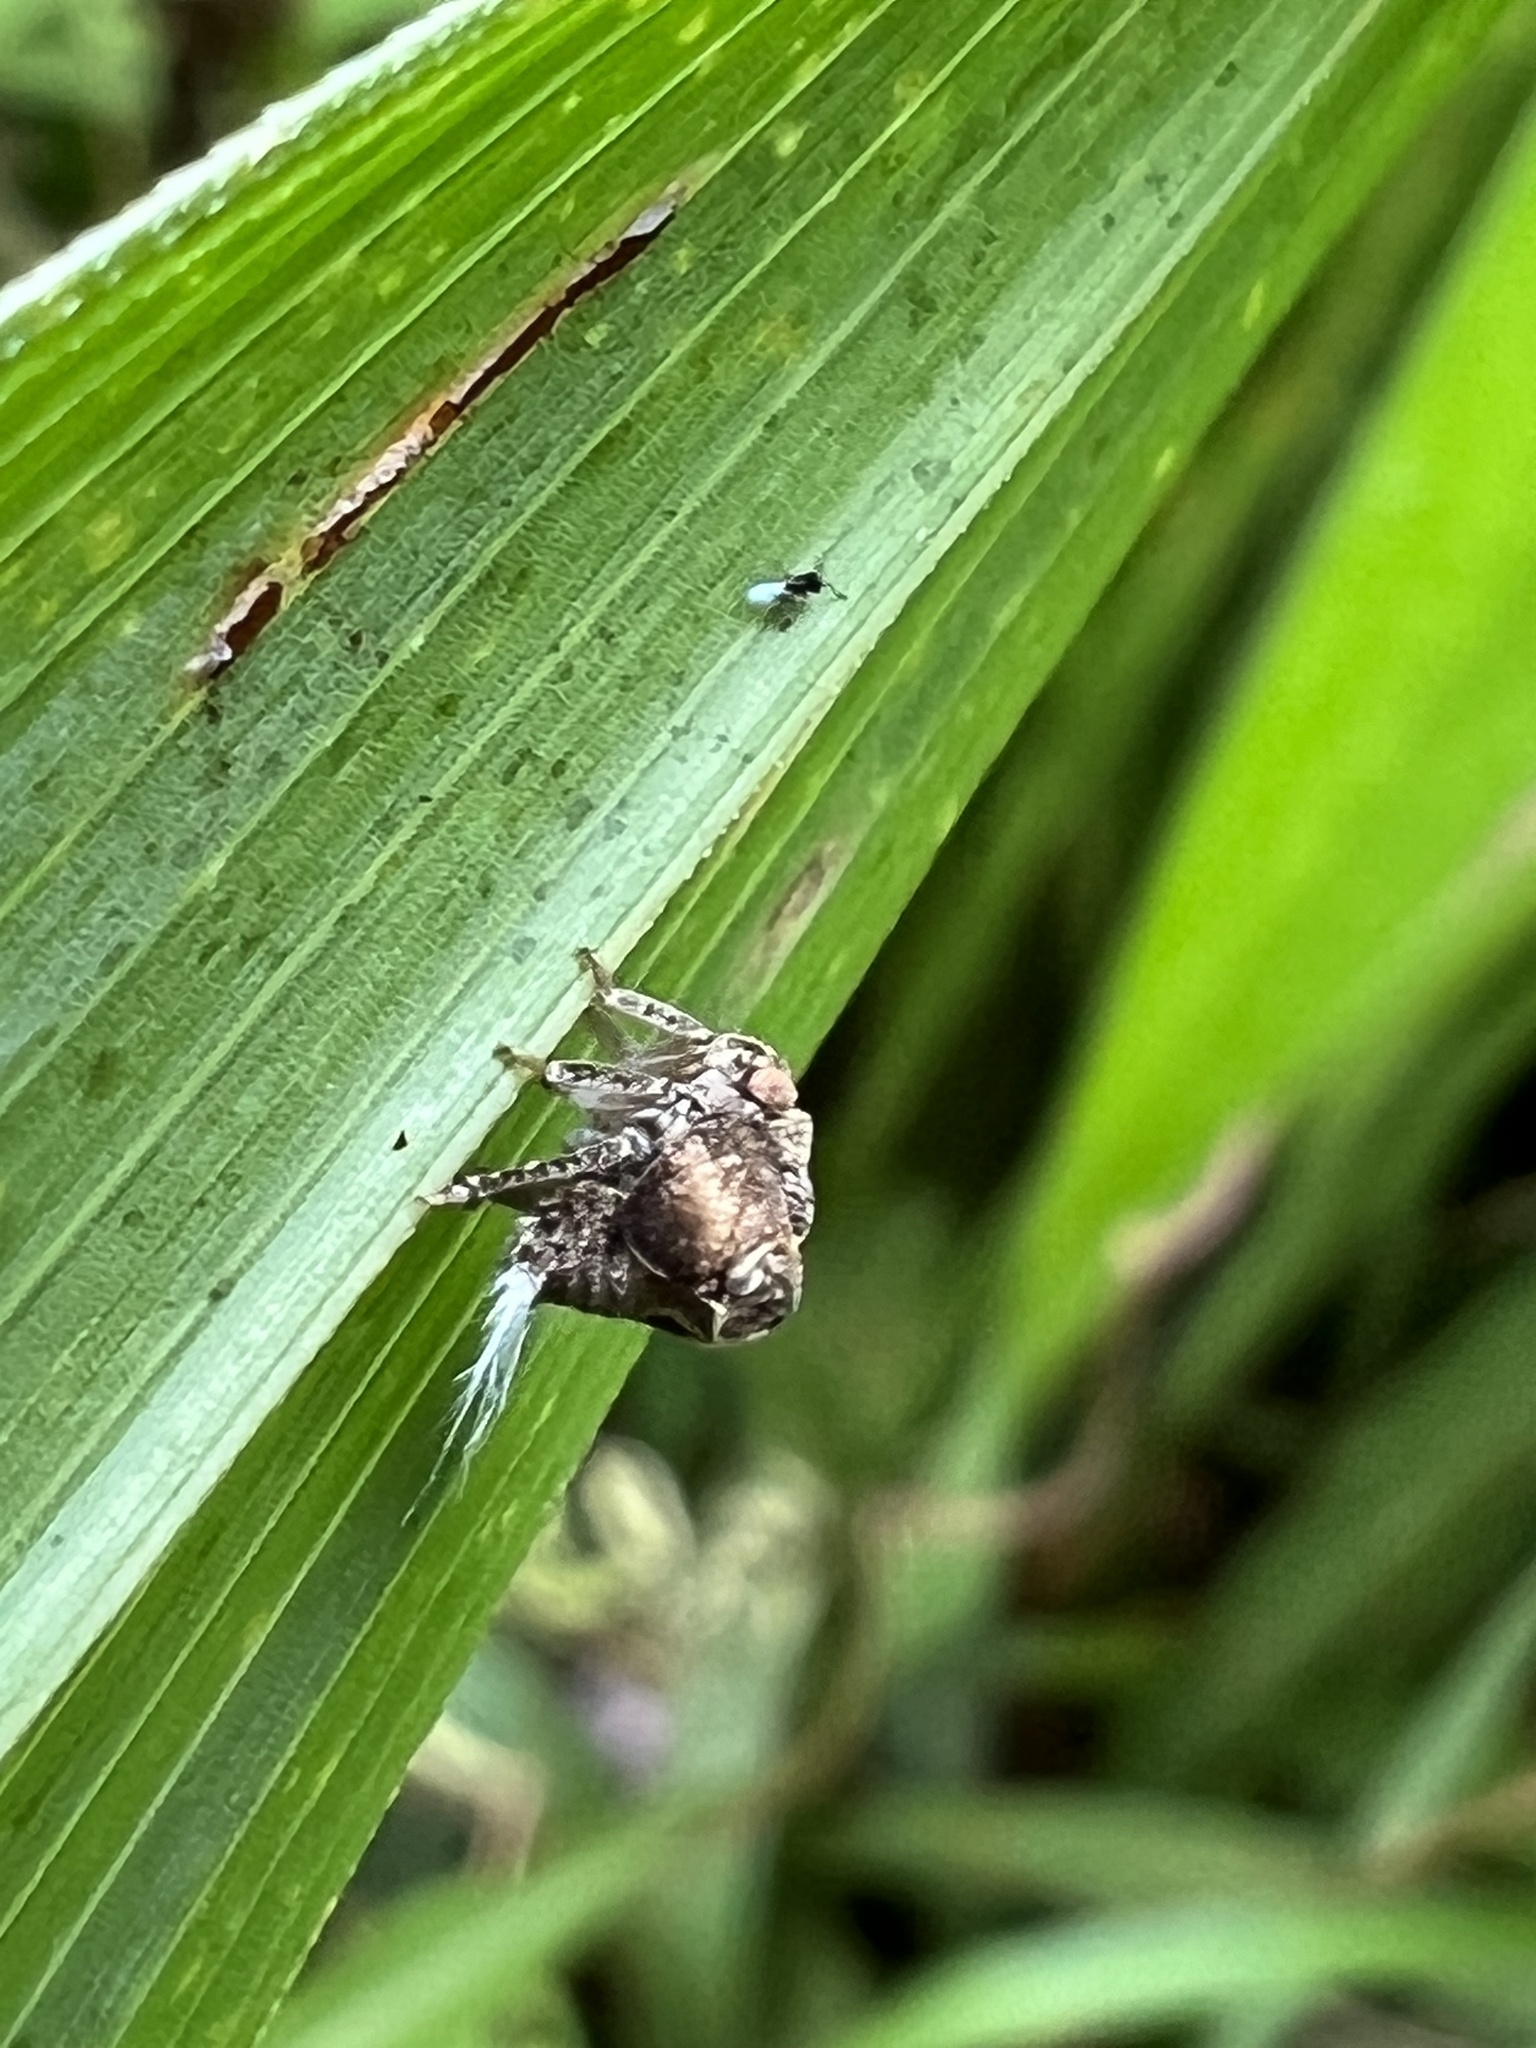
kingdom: Animalia
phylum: Arthropoda
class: Insecta
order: Hemiptera
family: Acanaloniidae
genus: Acanalonia
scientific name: Acanalonia bivittata
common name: Two-striped planthopper
